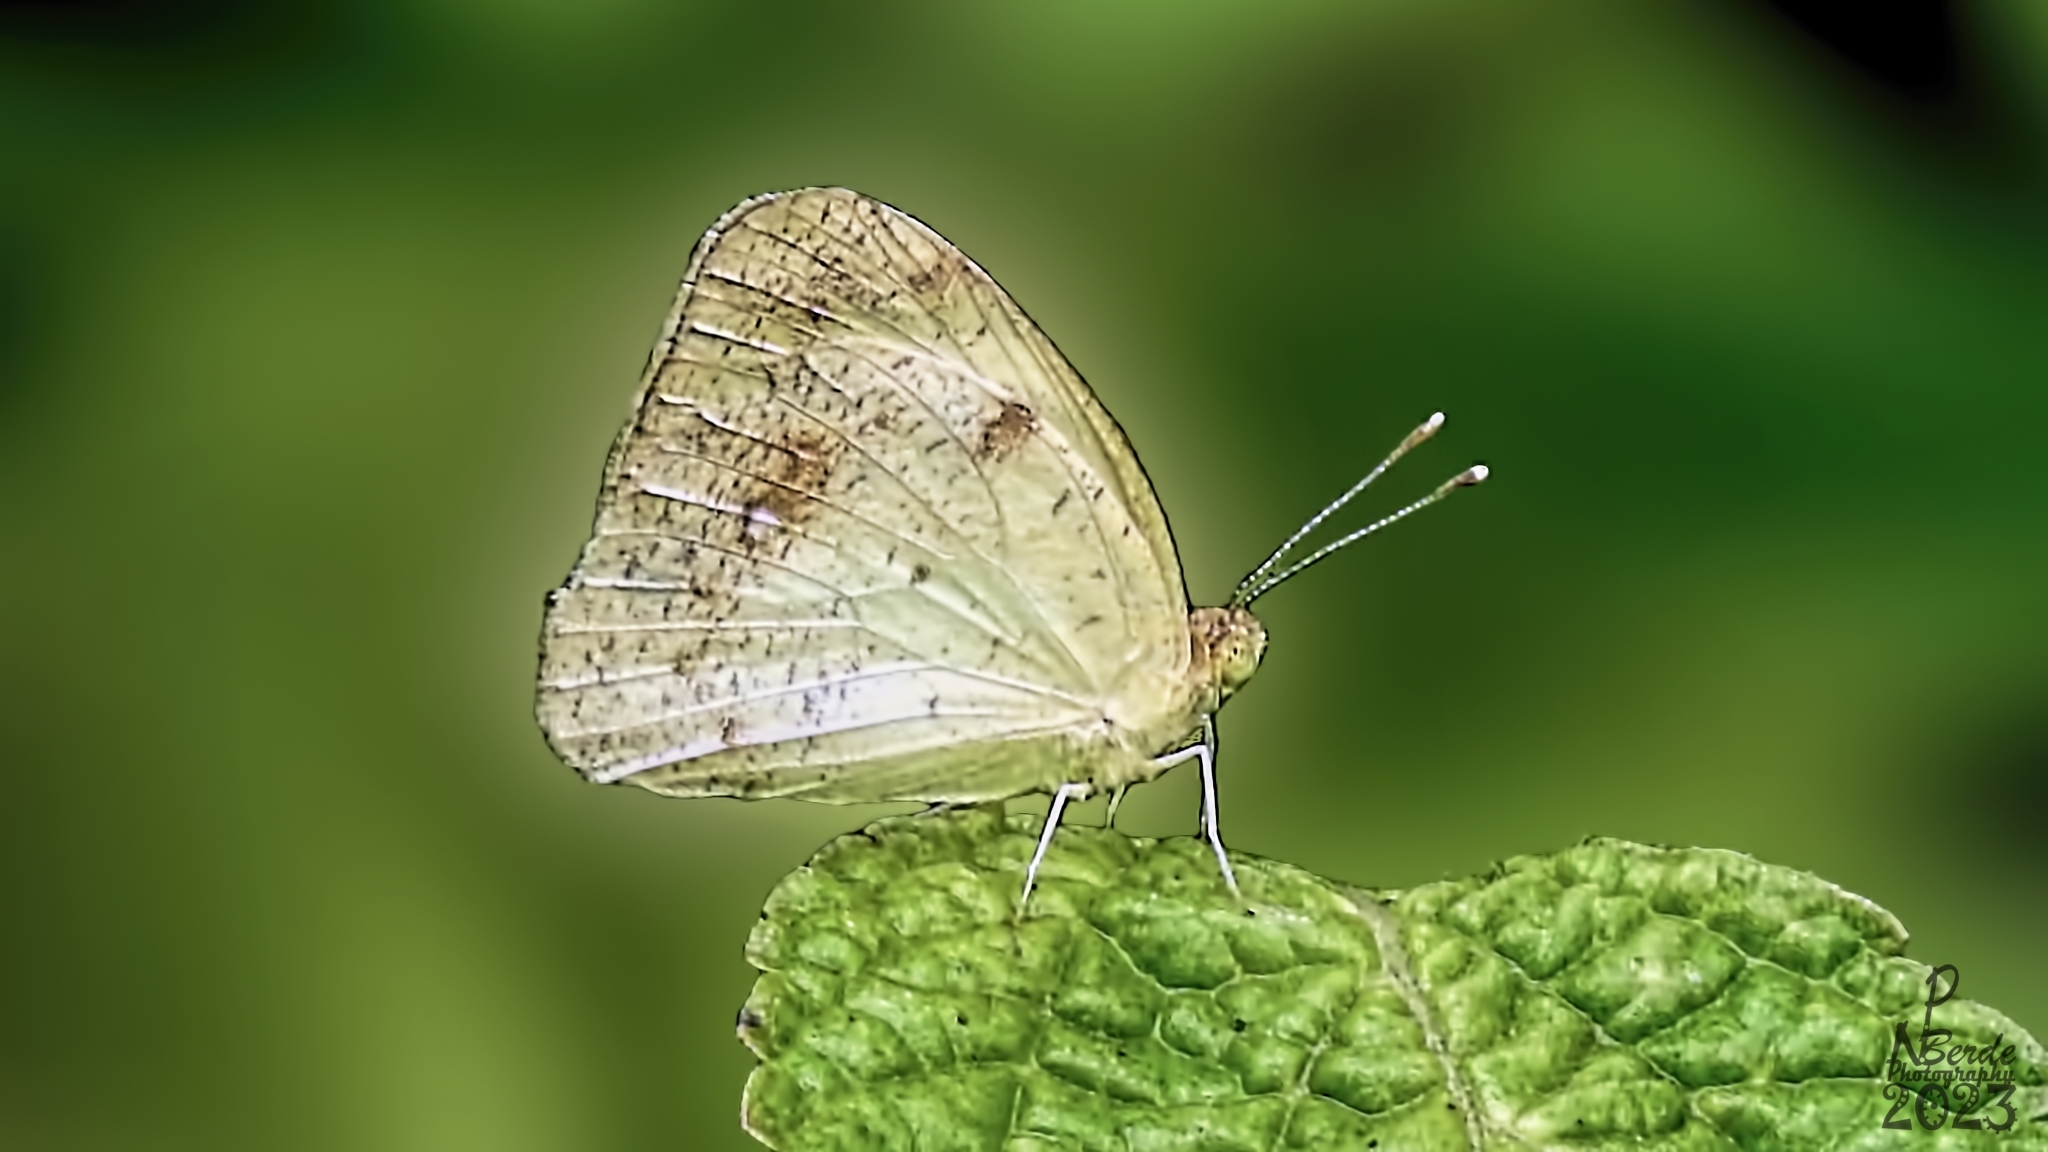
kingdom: Animalia
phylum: Arthropoda
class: Insecta
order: Lepidoptera
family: Pieridae
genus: Ixias
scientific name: Ixias pyrene
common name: Yellow orange tip
